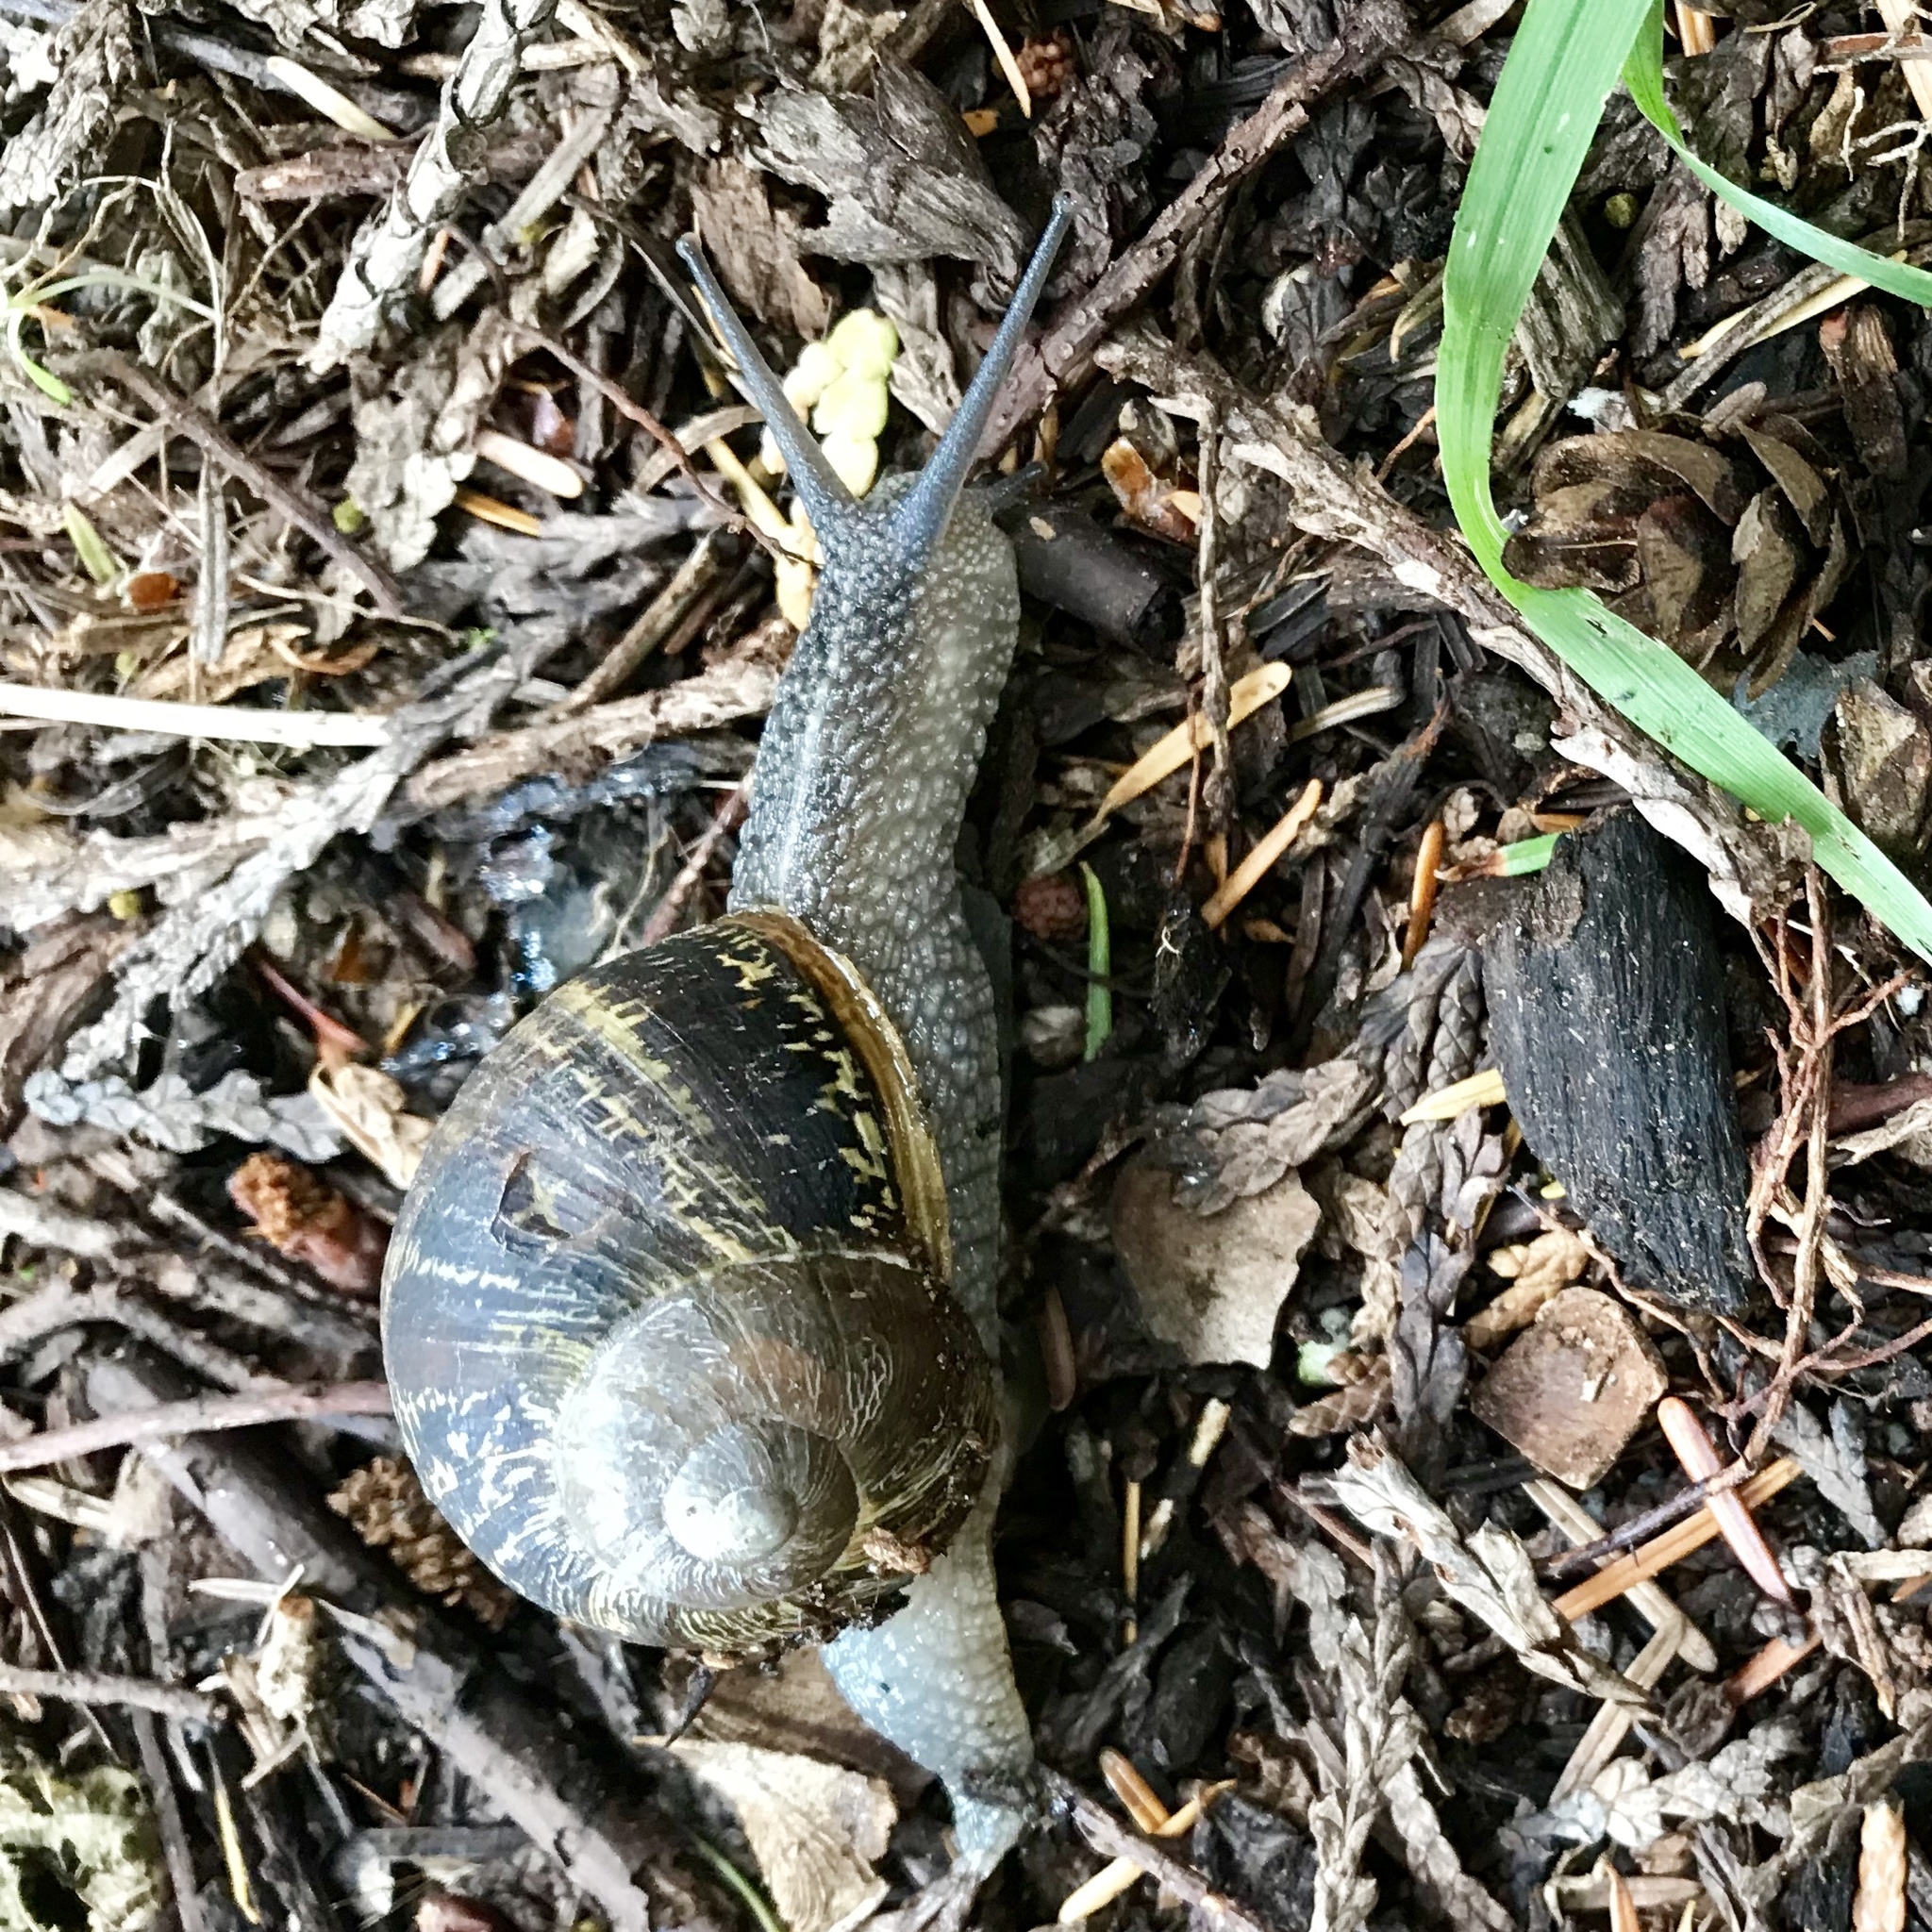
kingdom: Animalia
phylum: Mollusca
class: Gastropoda
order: Stylommatophora
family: Helicidae
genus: Cornu
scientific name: Cornu aspersum
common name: Brown garden snail
